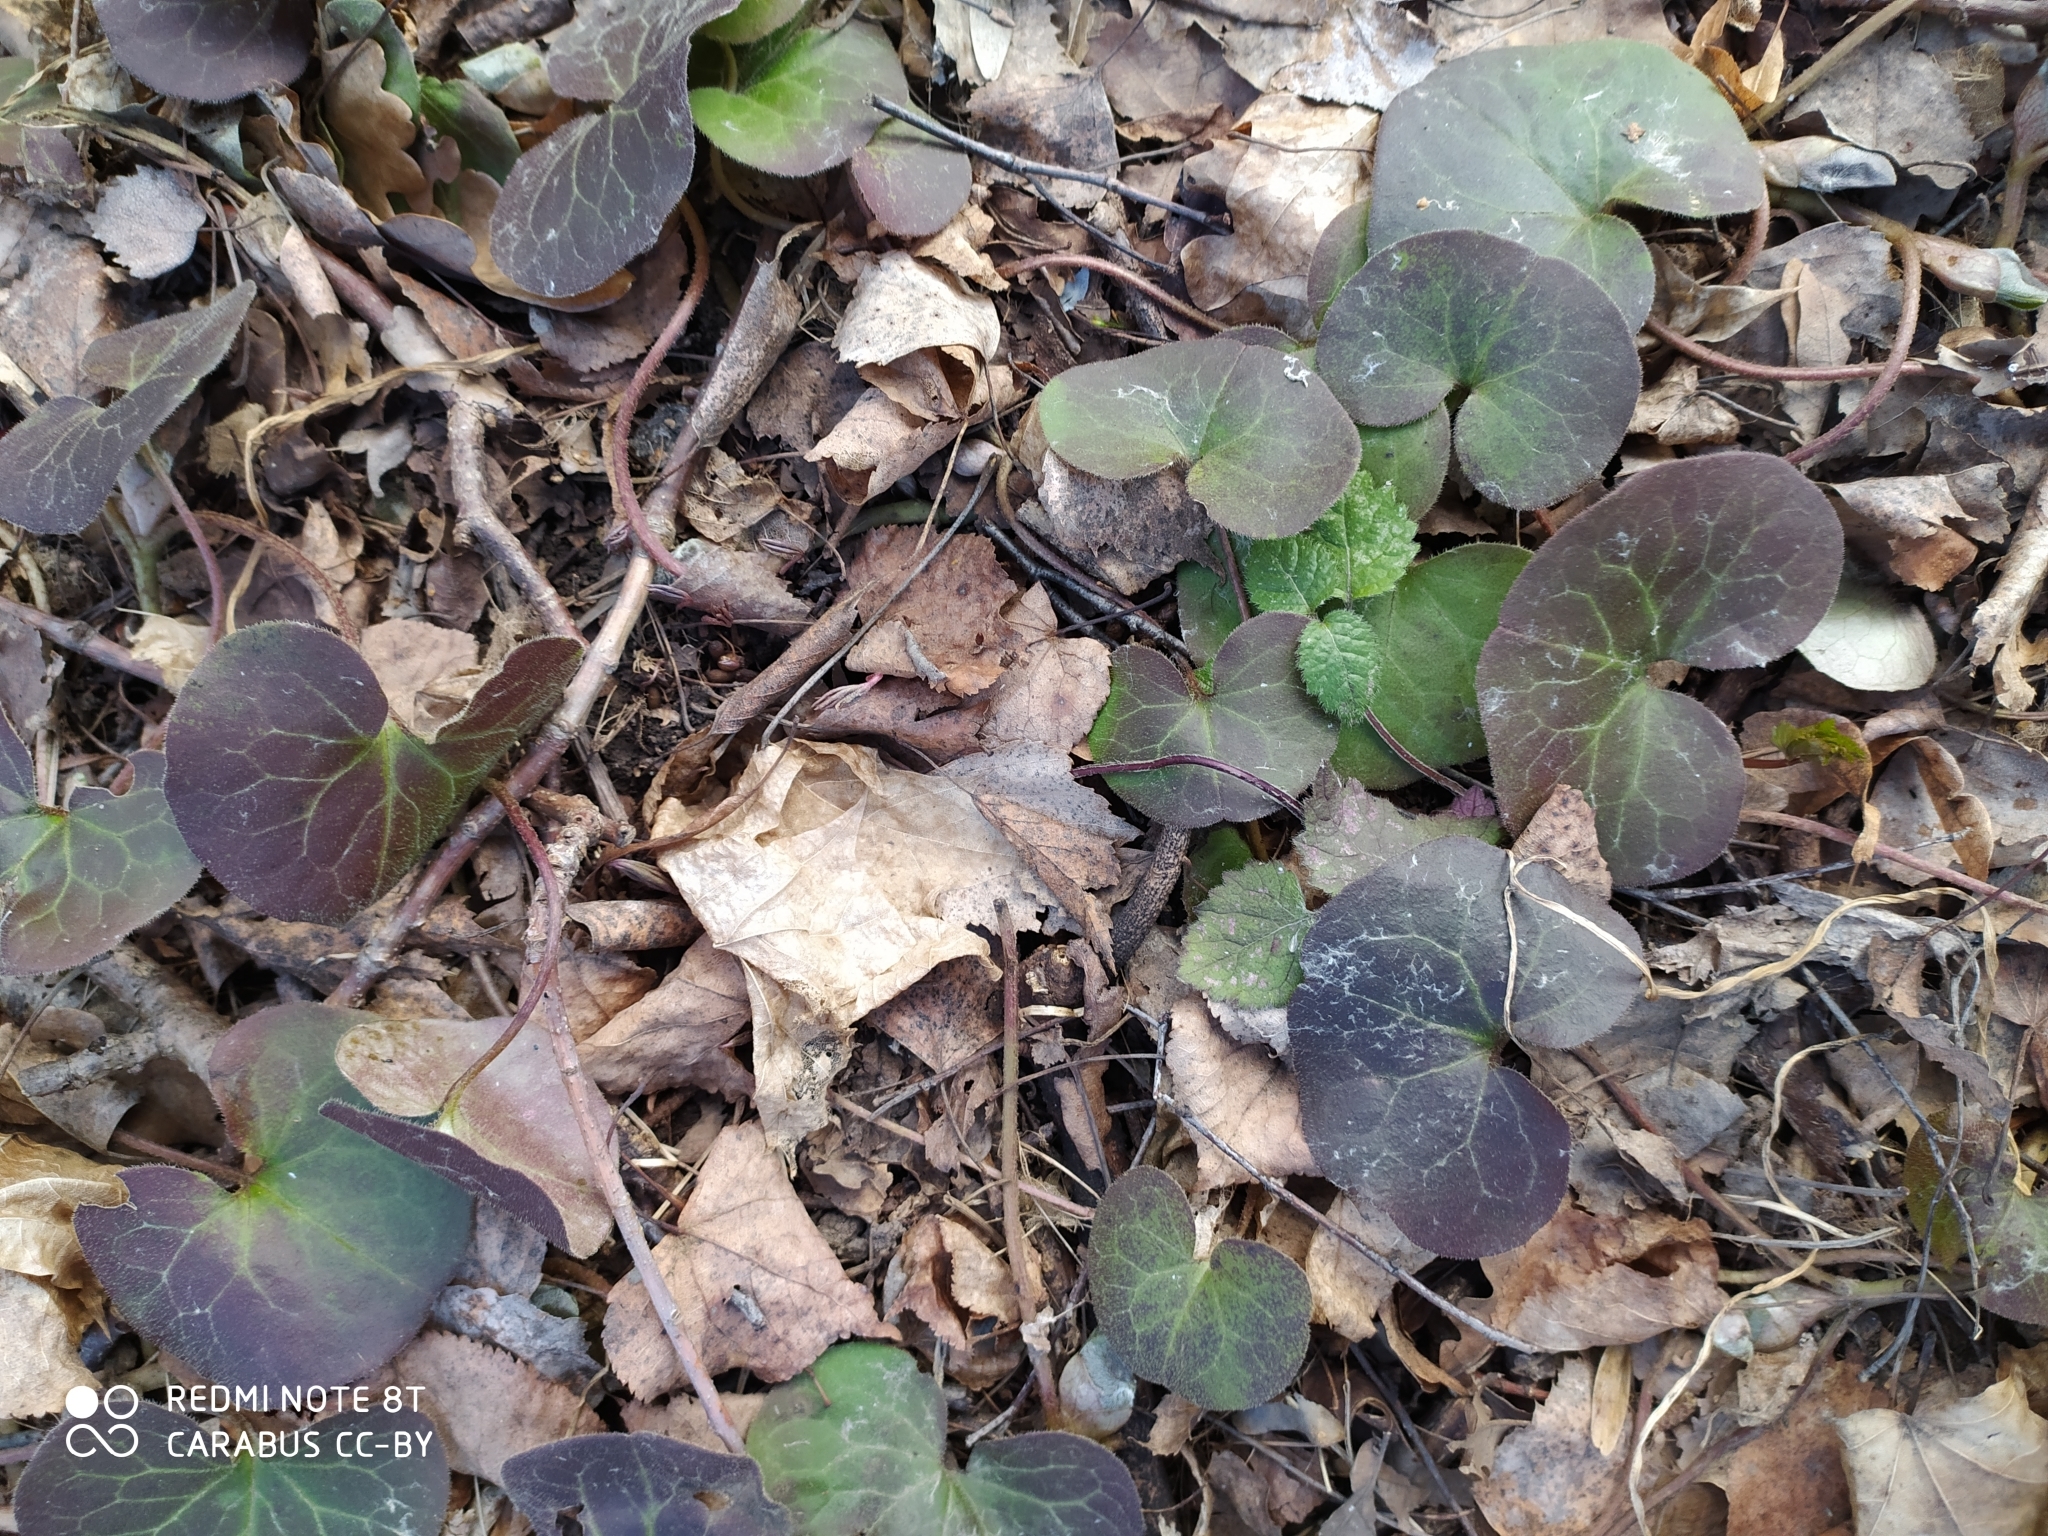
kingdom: Plantae
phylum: Tracheophyta
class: Magnoliopsida
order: Piperales
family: Aristolochiaceae
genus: Asarum
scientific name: Asarum europaeum
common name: Asarabacca
